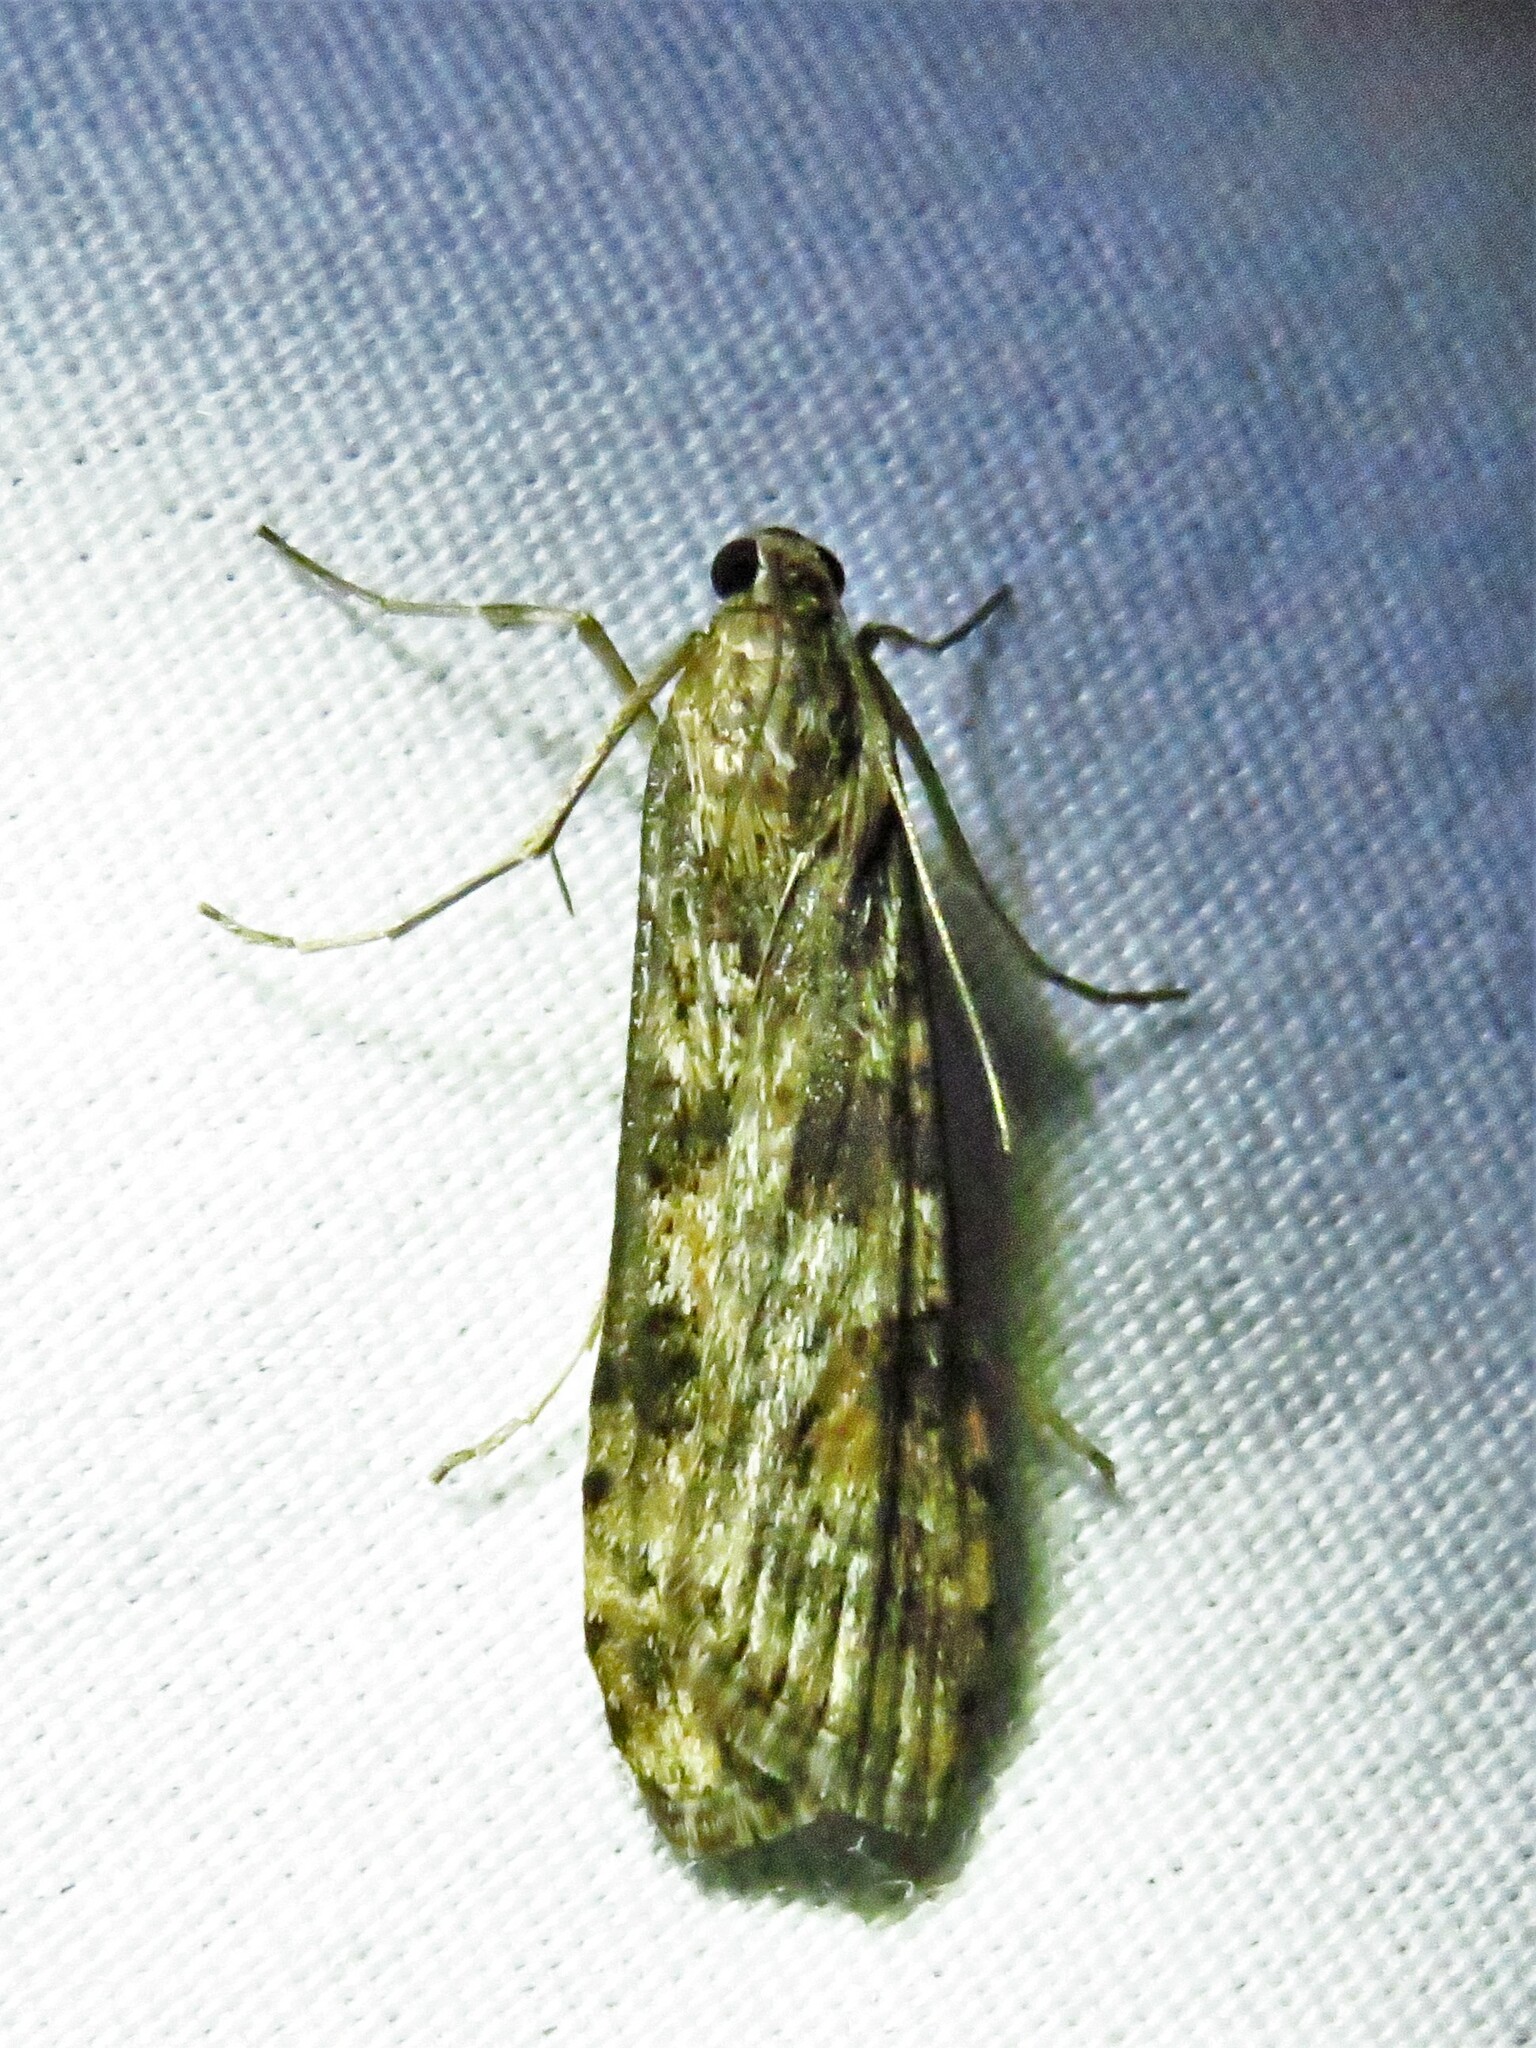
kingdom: Animalia
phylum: Arthropoda
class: Insecta
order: Lepidoptera
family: Crambidae
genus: Nomophila
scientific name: Nomophila nearctica
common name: American rush veneer
